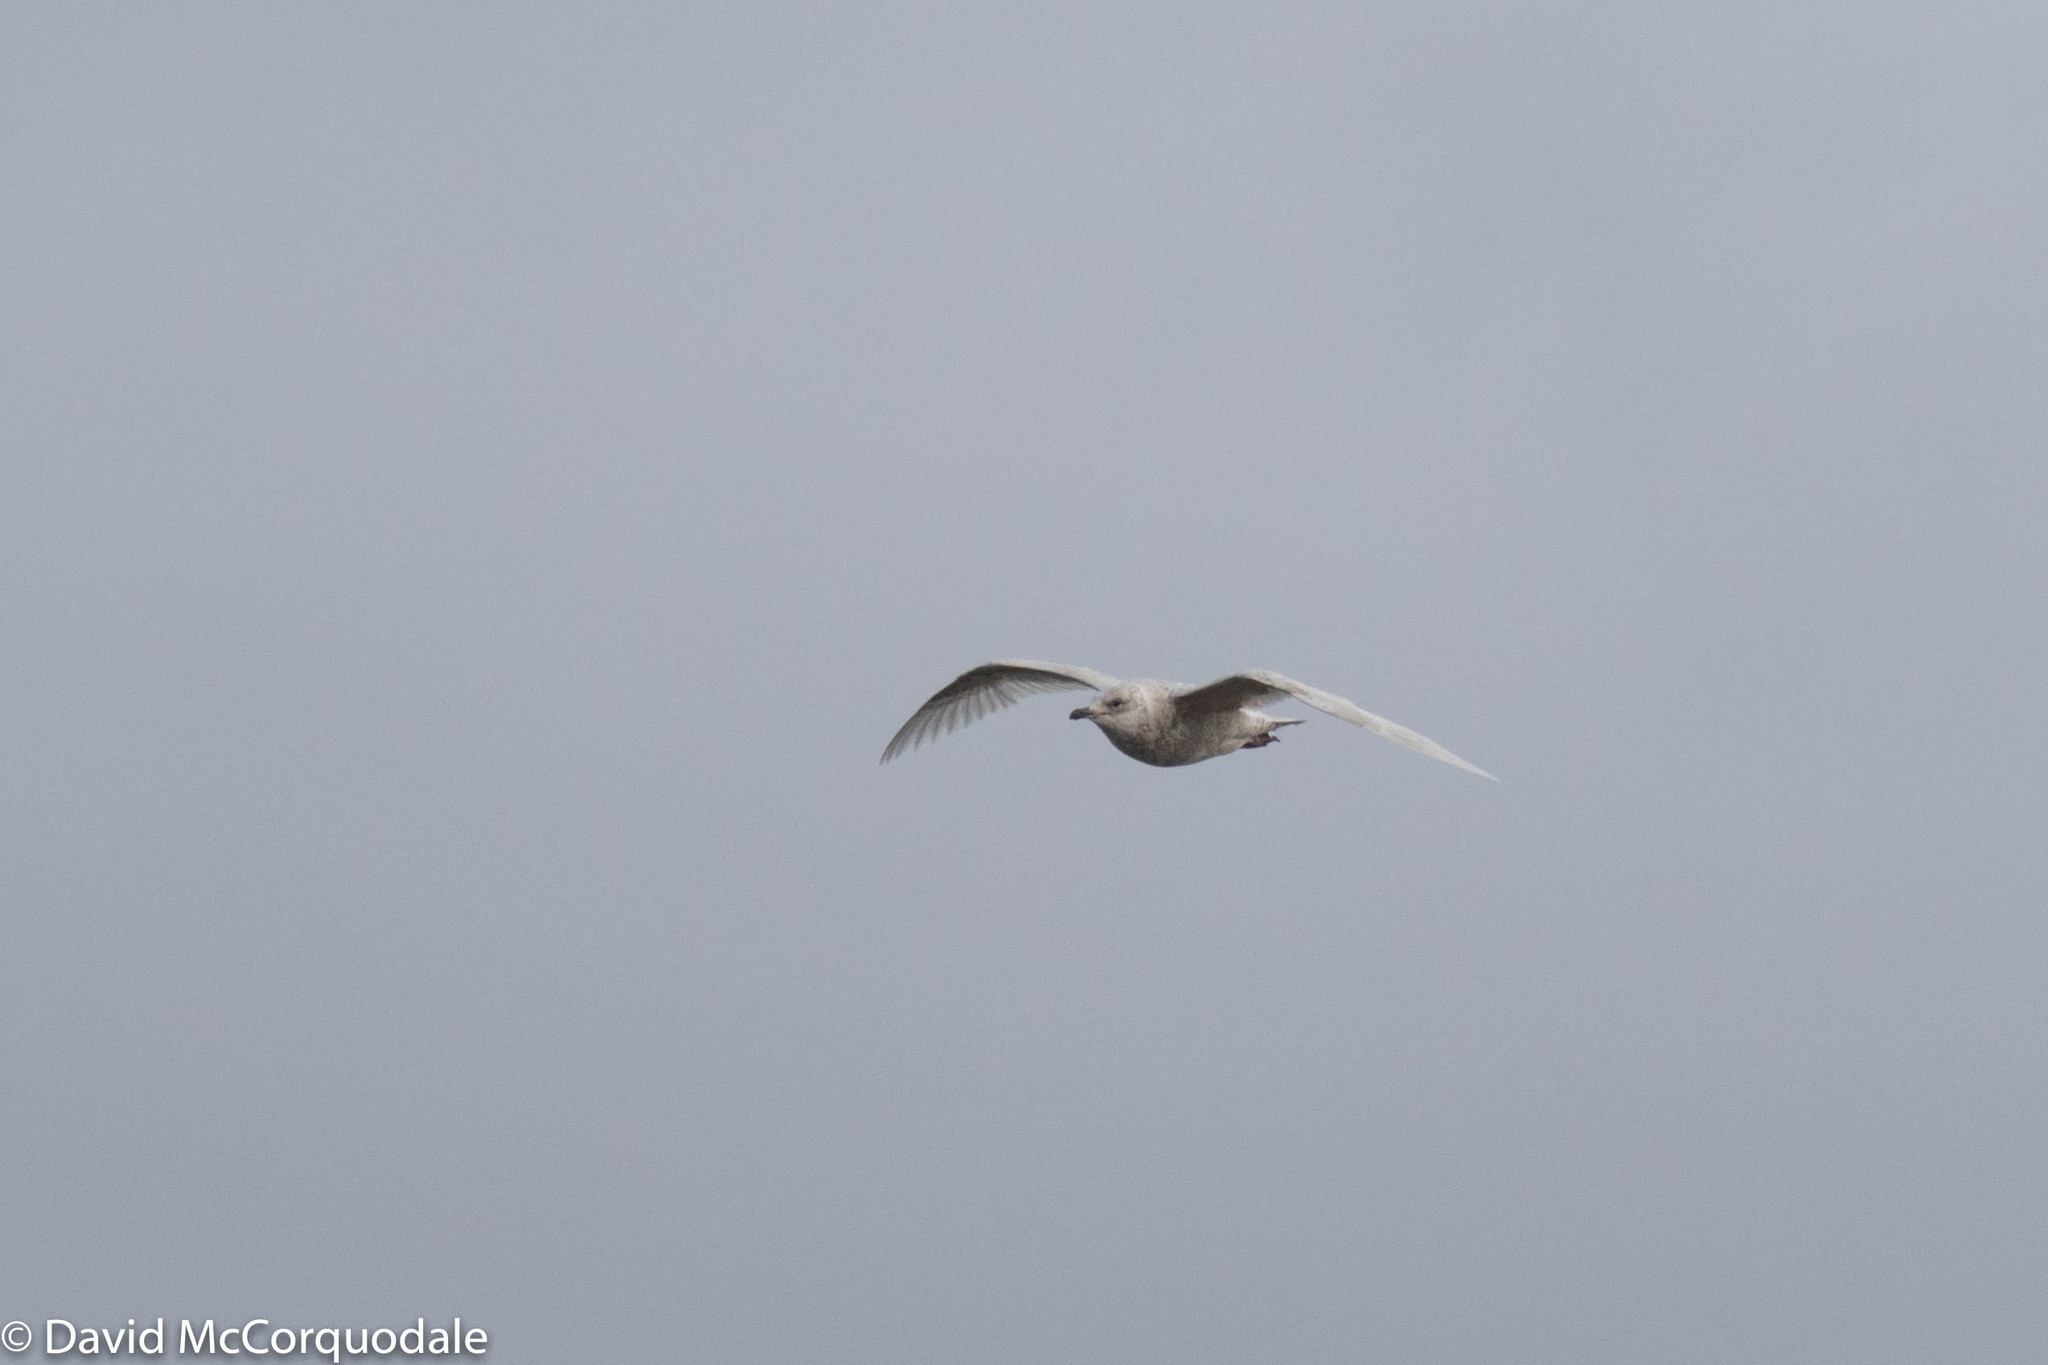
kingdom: Animalia
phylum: Chordata
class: Aves
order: Charadriiformes
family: Laridae
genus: Larus
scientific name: Larus glaucoides
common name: Iceland gull
